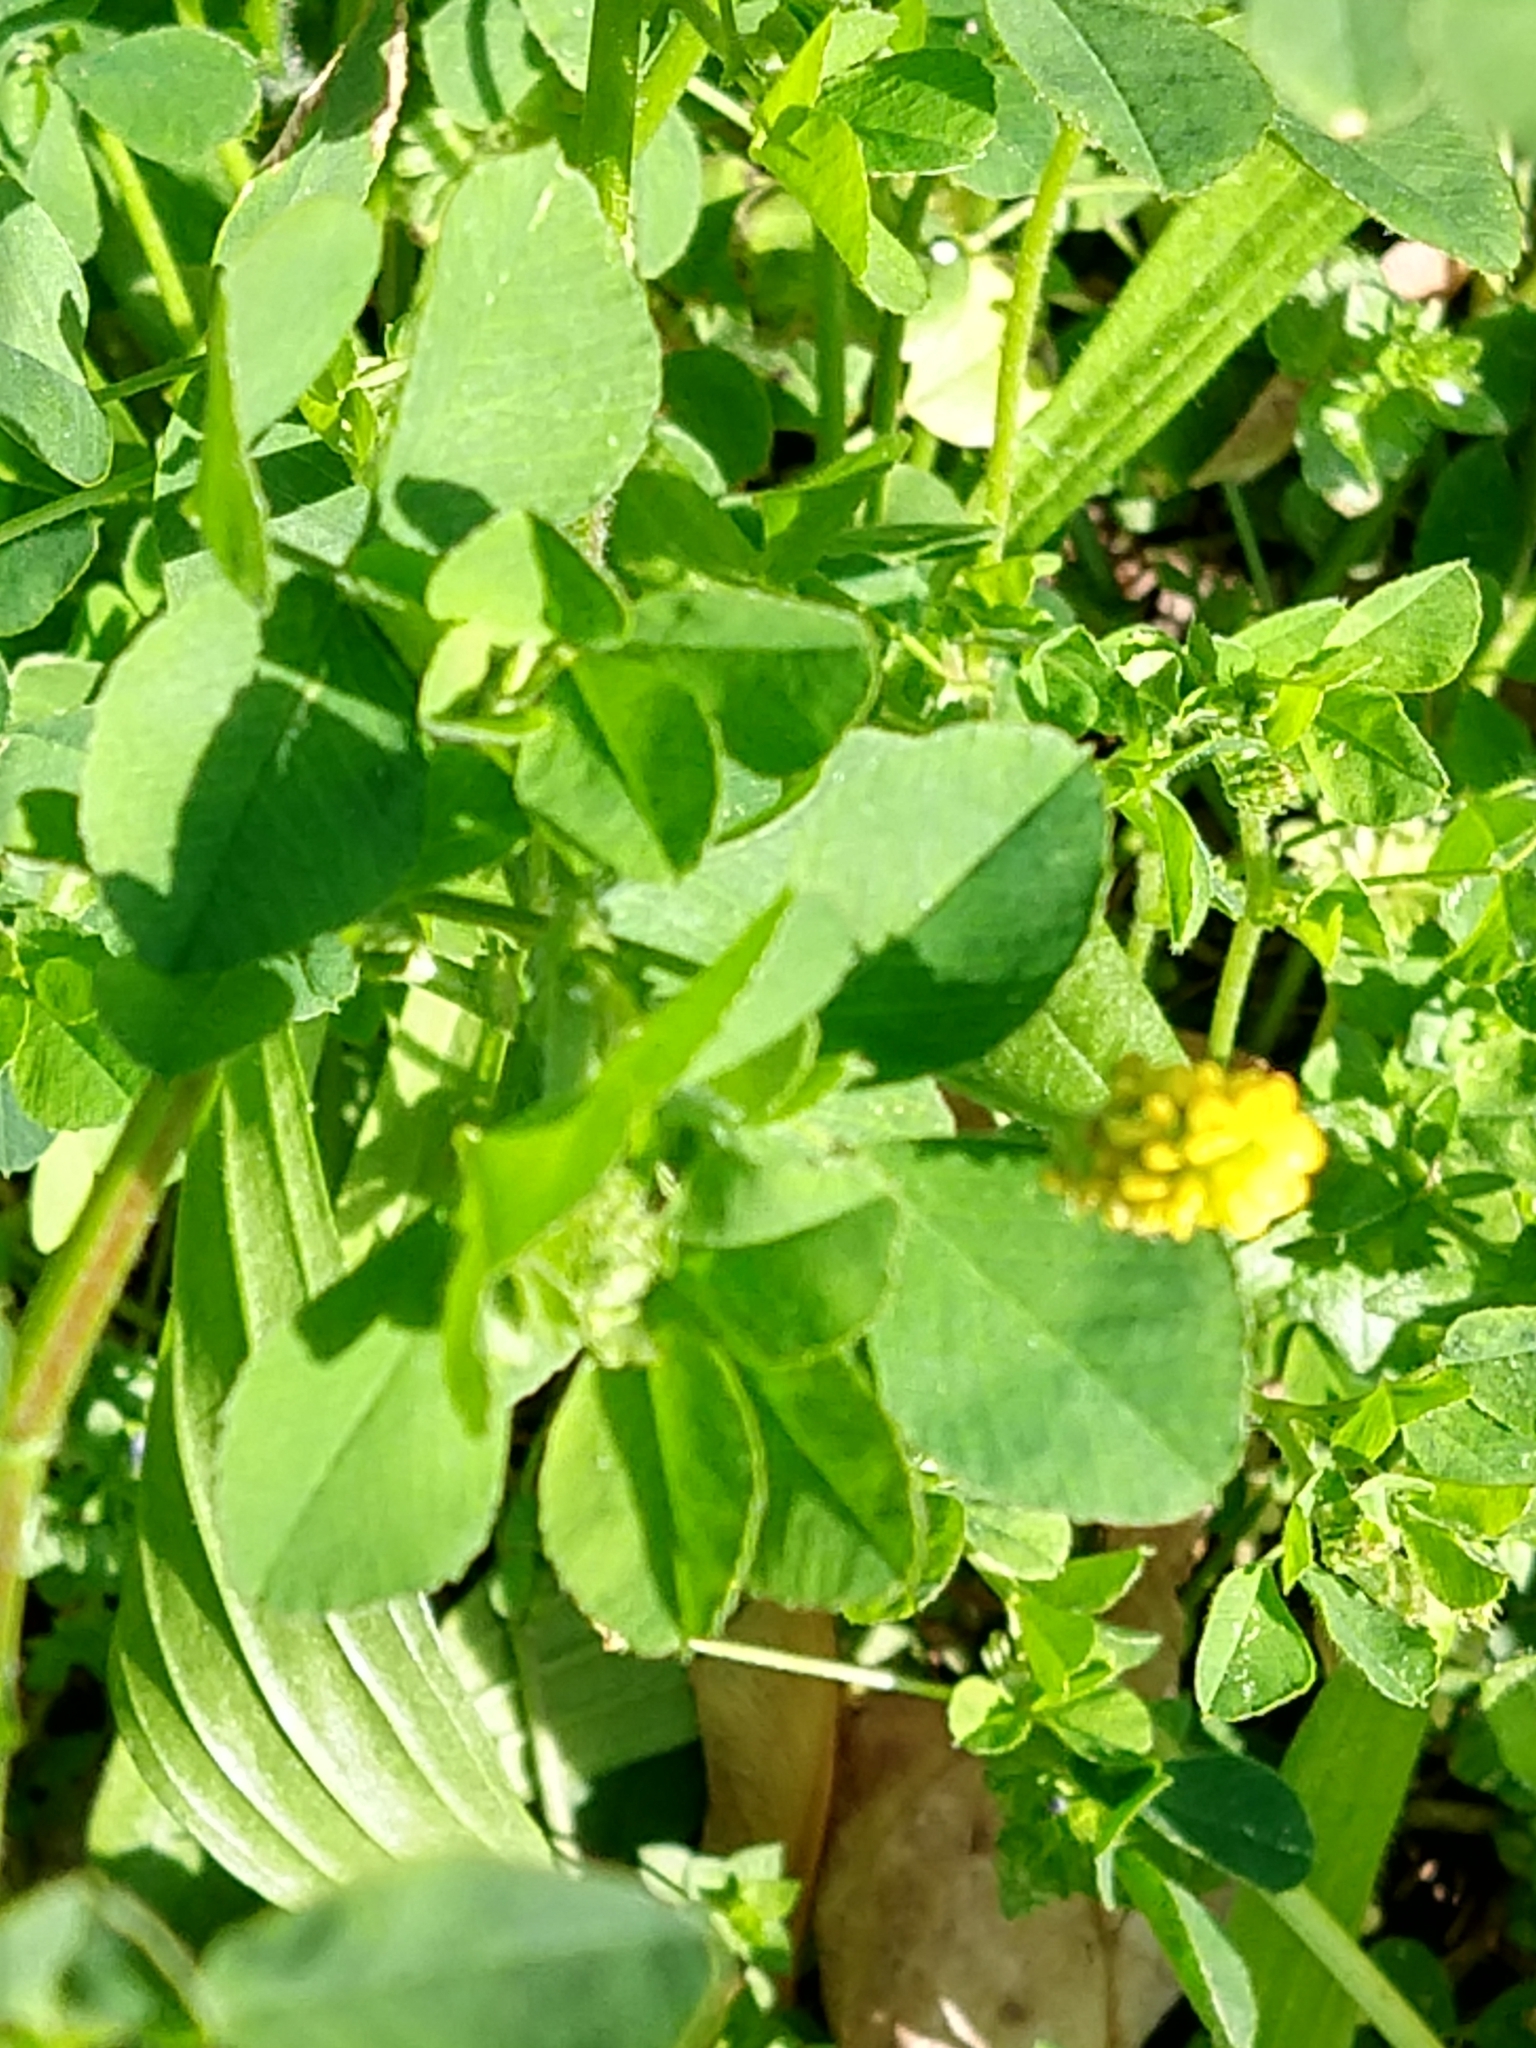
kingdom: Plantae
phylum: Tracheophyta
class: Magnoliopsida
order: Fabales
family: Fabaceae
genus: Medicago
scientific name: Medicago lupulina
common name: Black medick
